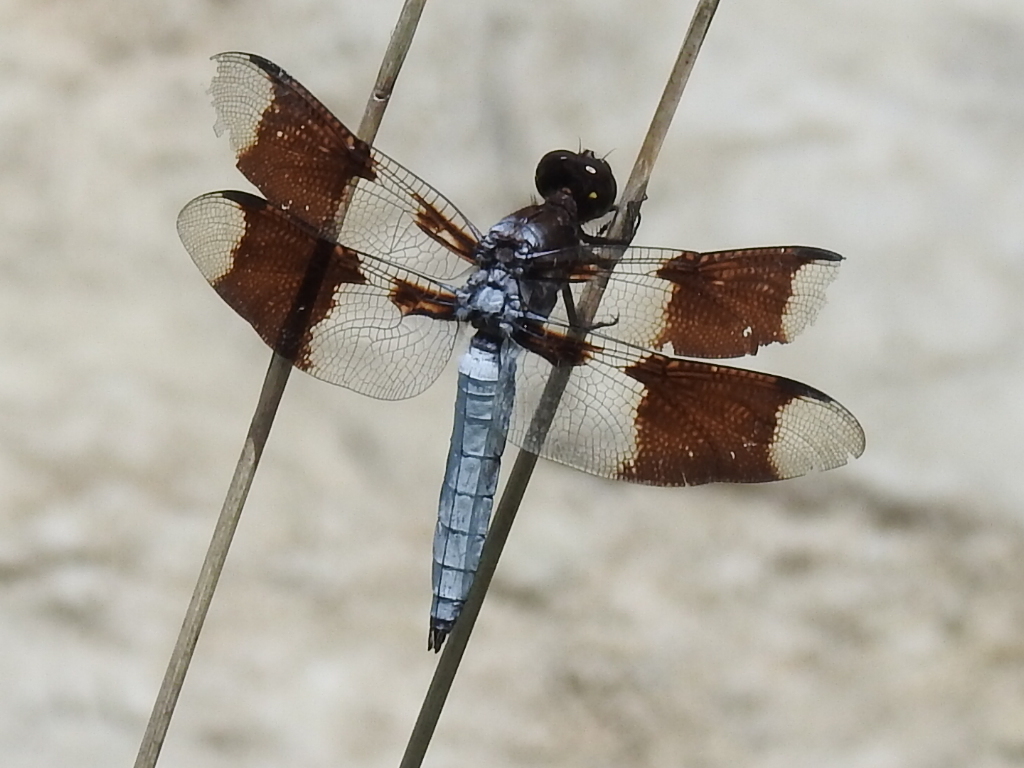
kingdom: Animalia
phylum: Arthropoda
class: Insecta
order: Odonata
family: Libellulidae
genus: Plathemis
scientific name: Plathemis lydia
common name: Common whitetail
